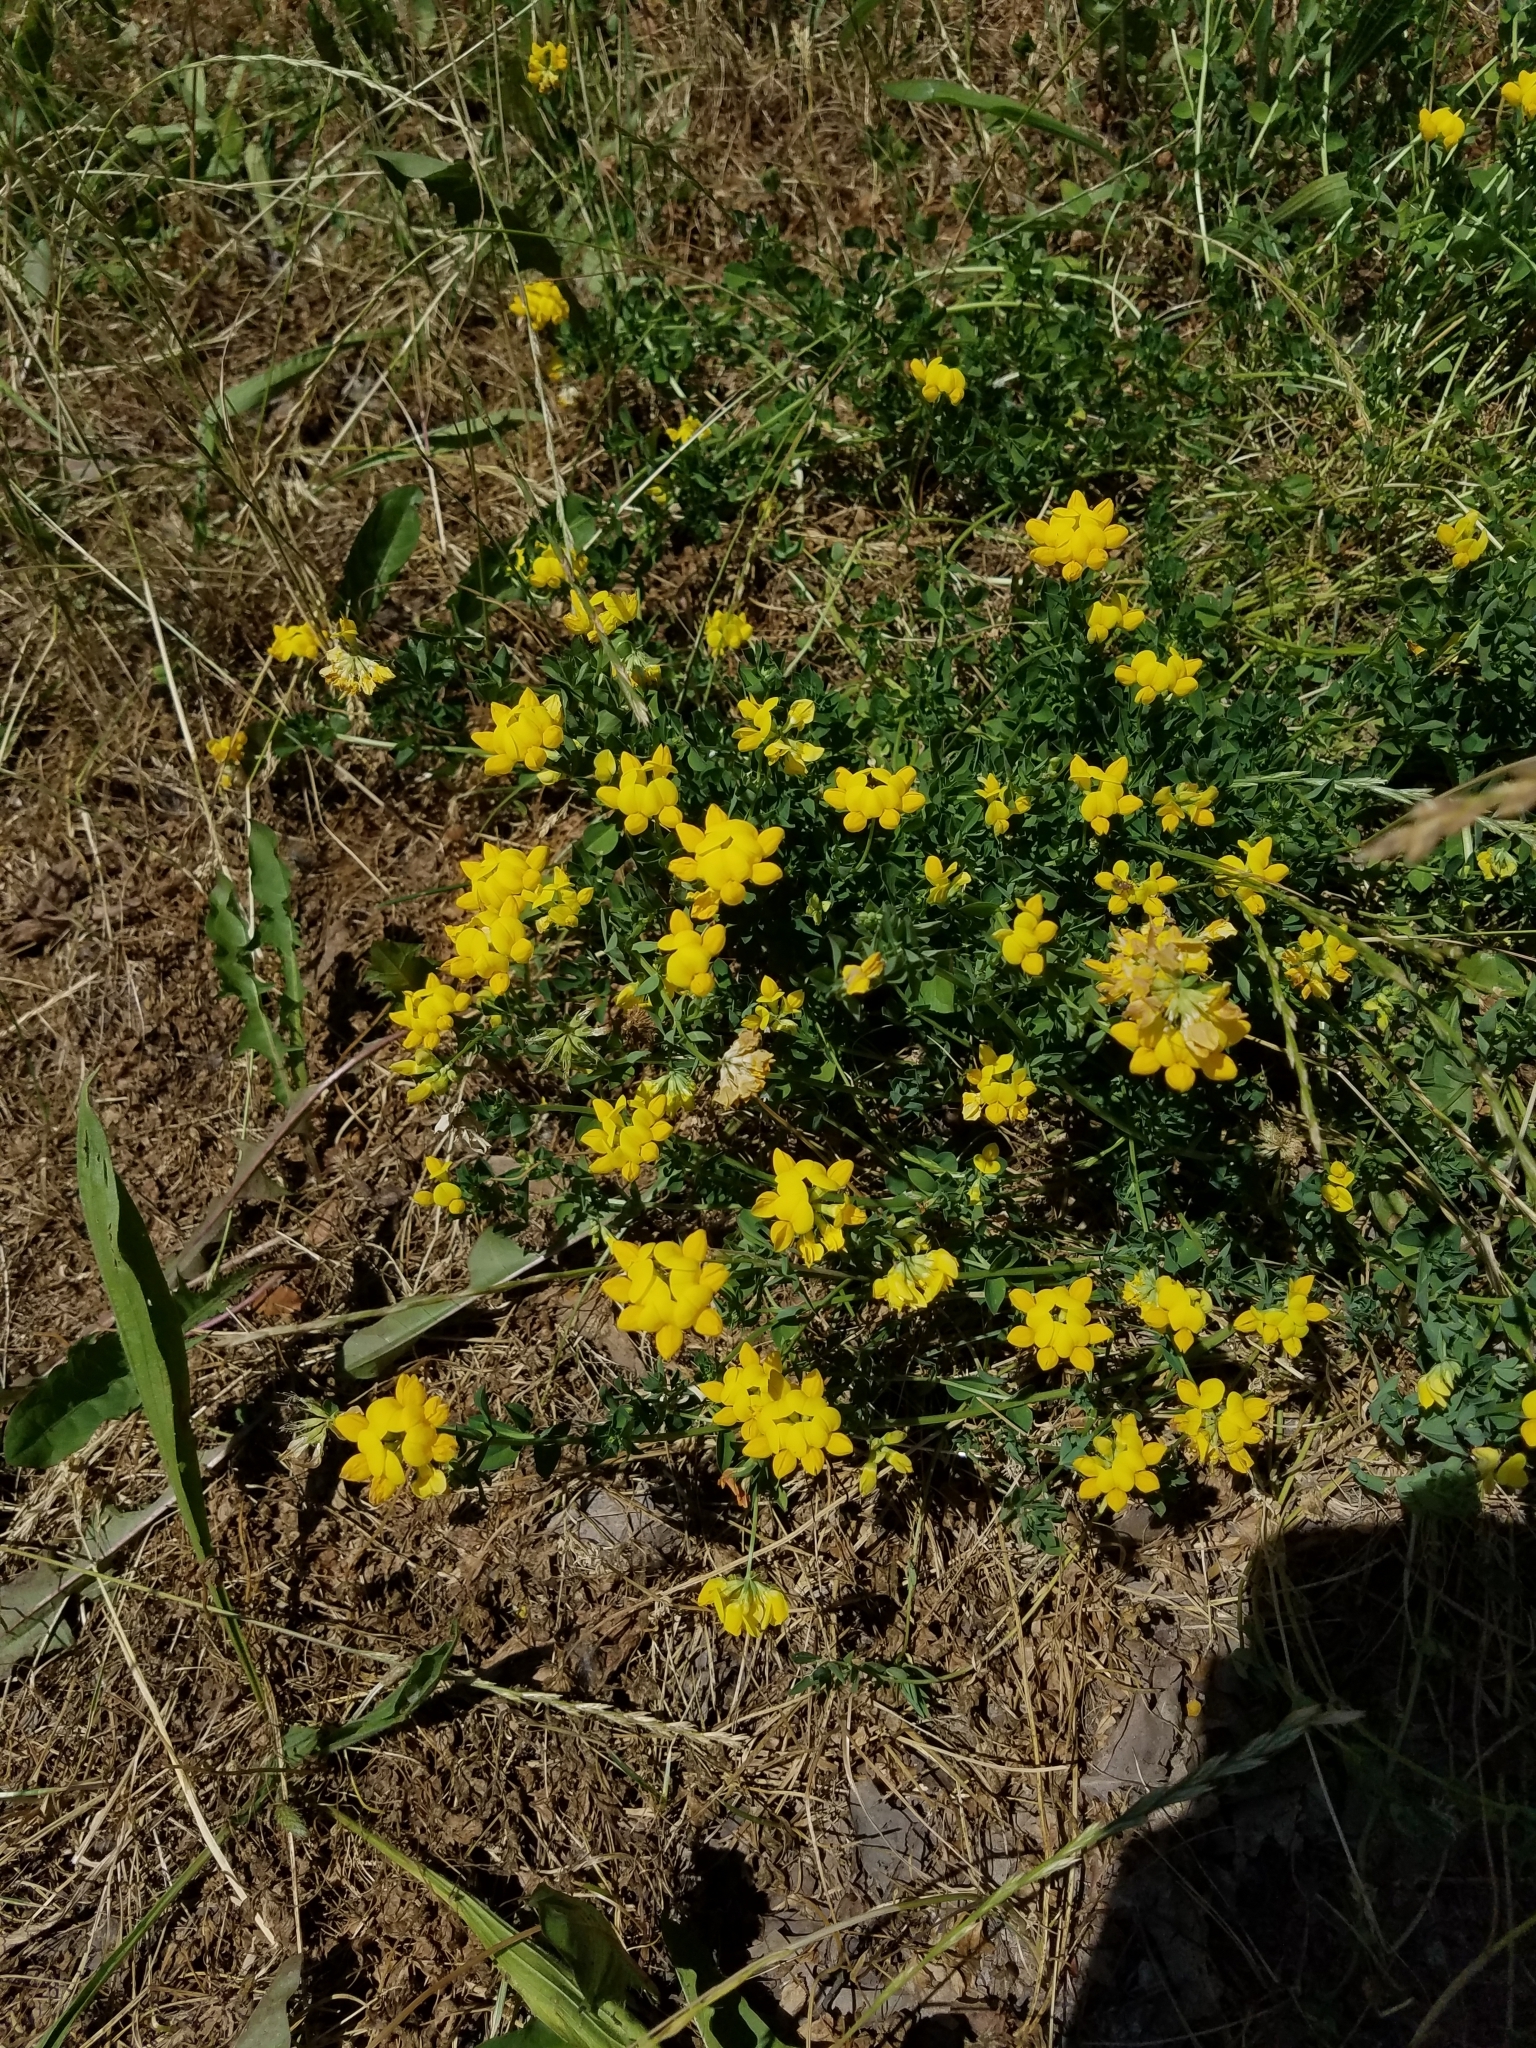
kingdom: Plantae
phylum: Tracheophyta
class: Magnoliopsida
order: Fabales
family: Fabaceae
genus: Lotus
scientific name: Lotus corniculatus
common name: Common bird's-foot-trefoil
